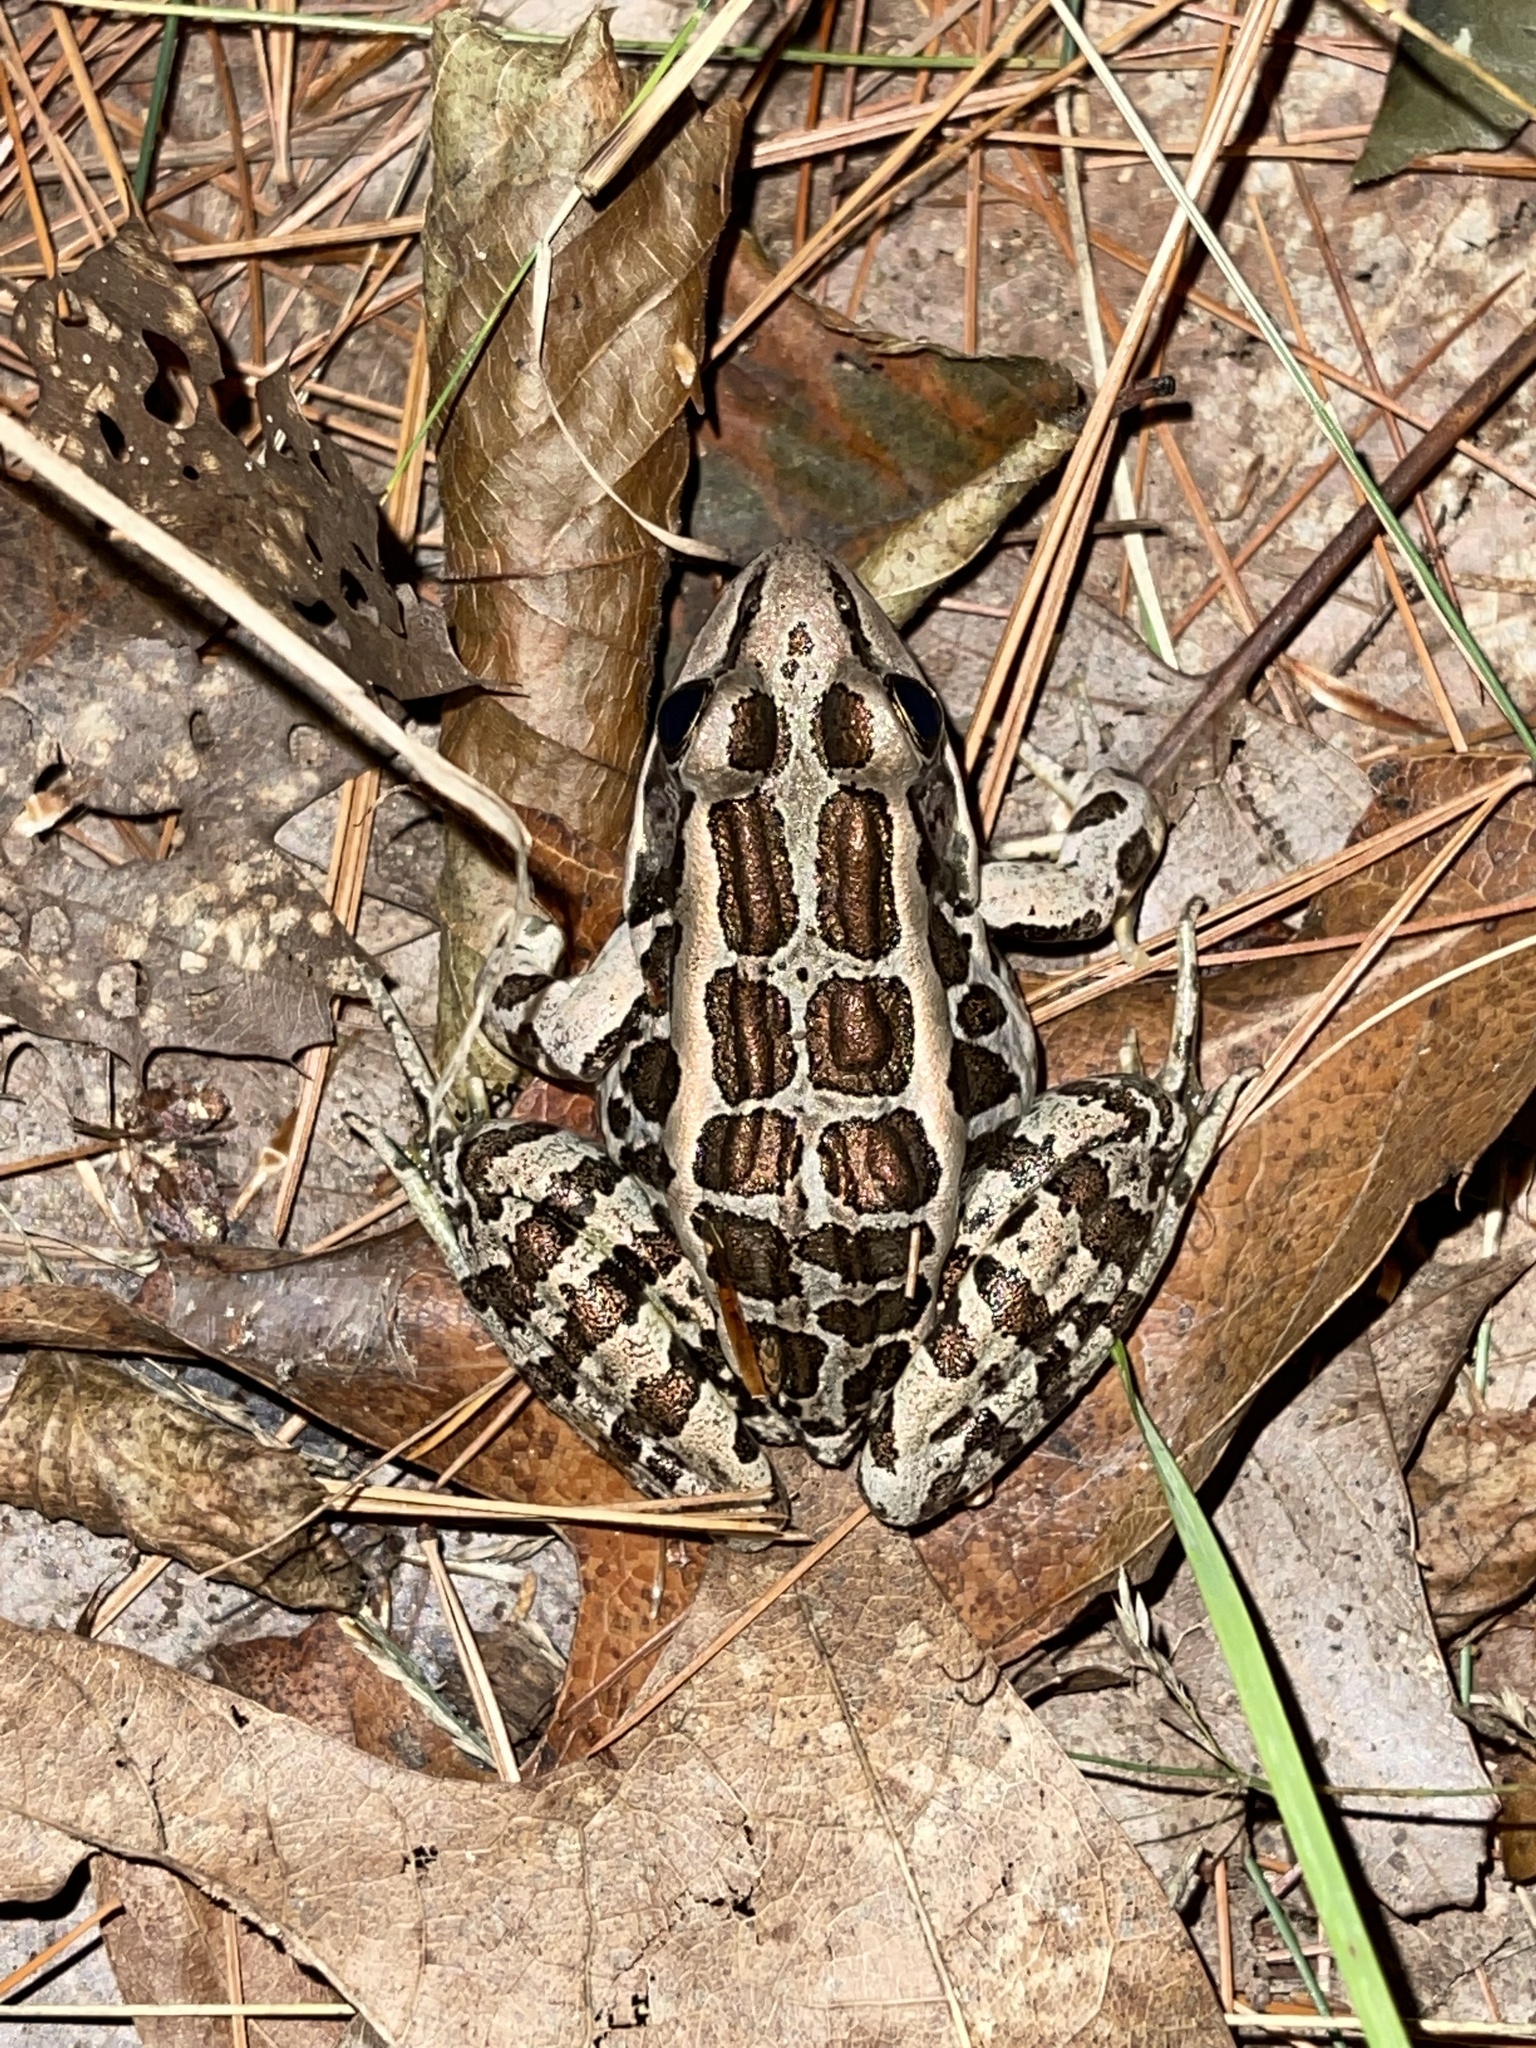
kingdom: Animalia
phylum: Chordata
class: Amphibia
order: Anura
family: Ranidae
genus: Lithobates
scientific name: Lithobates palustris
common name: Pickerel frog
